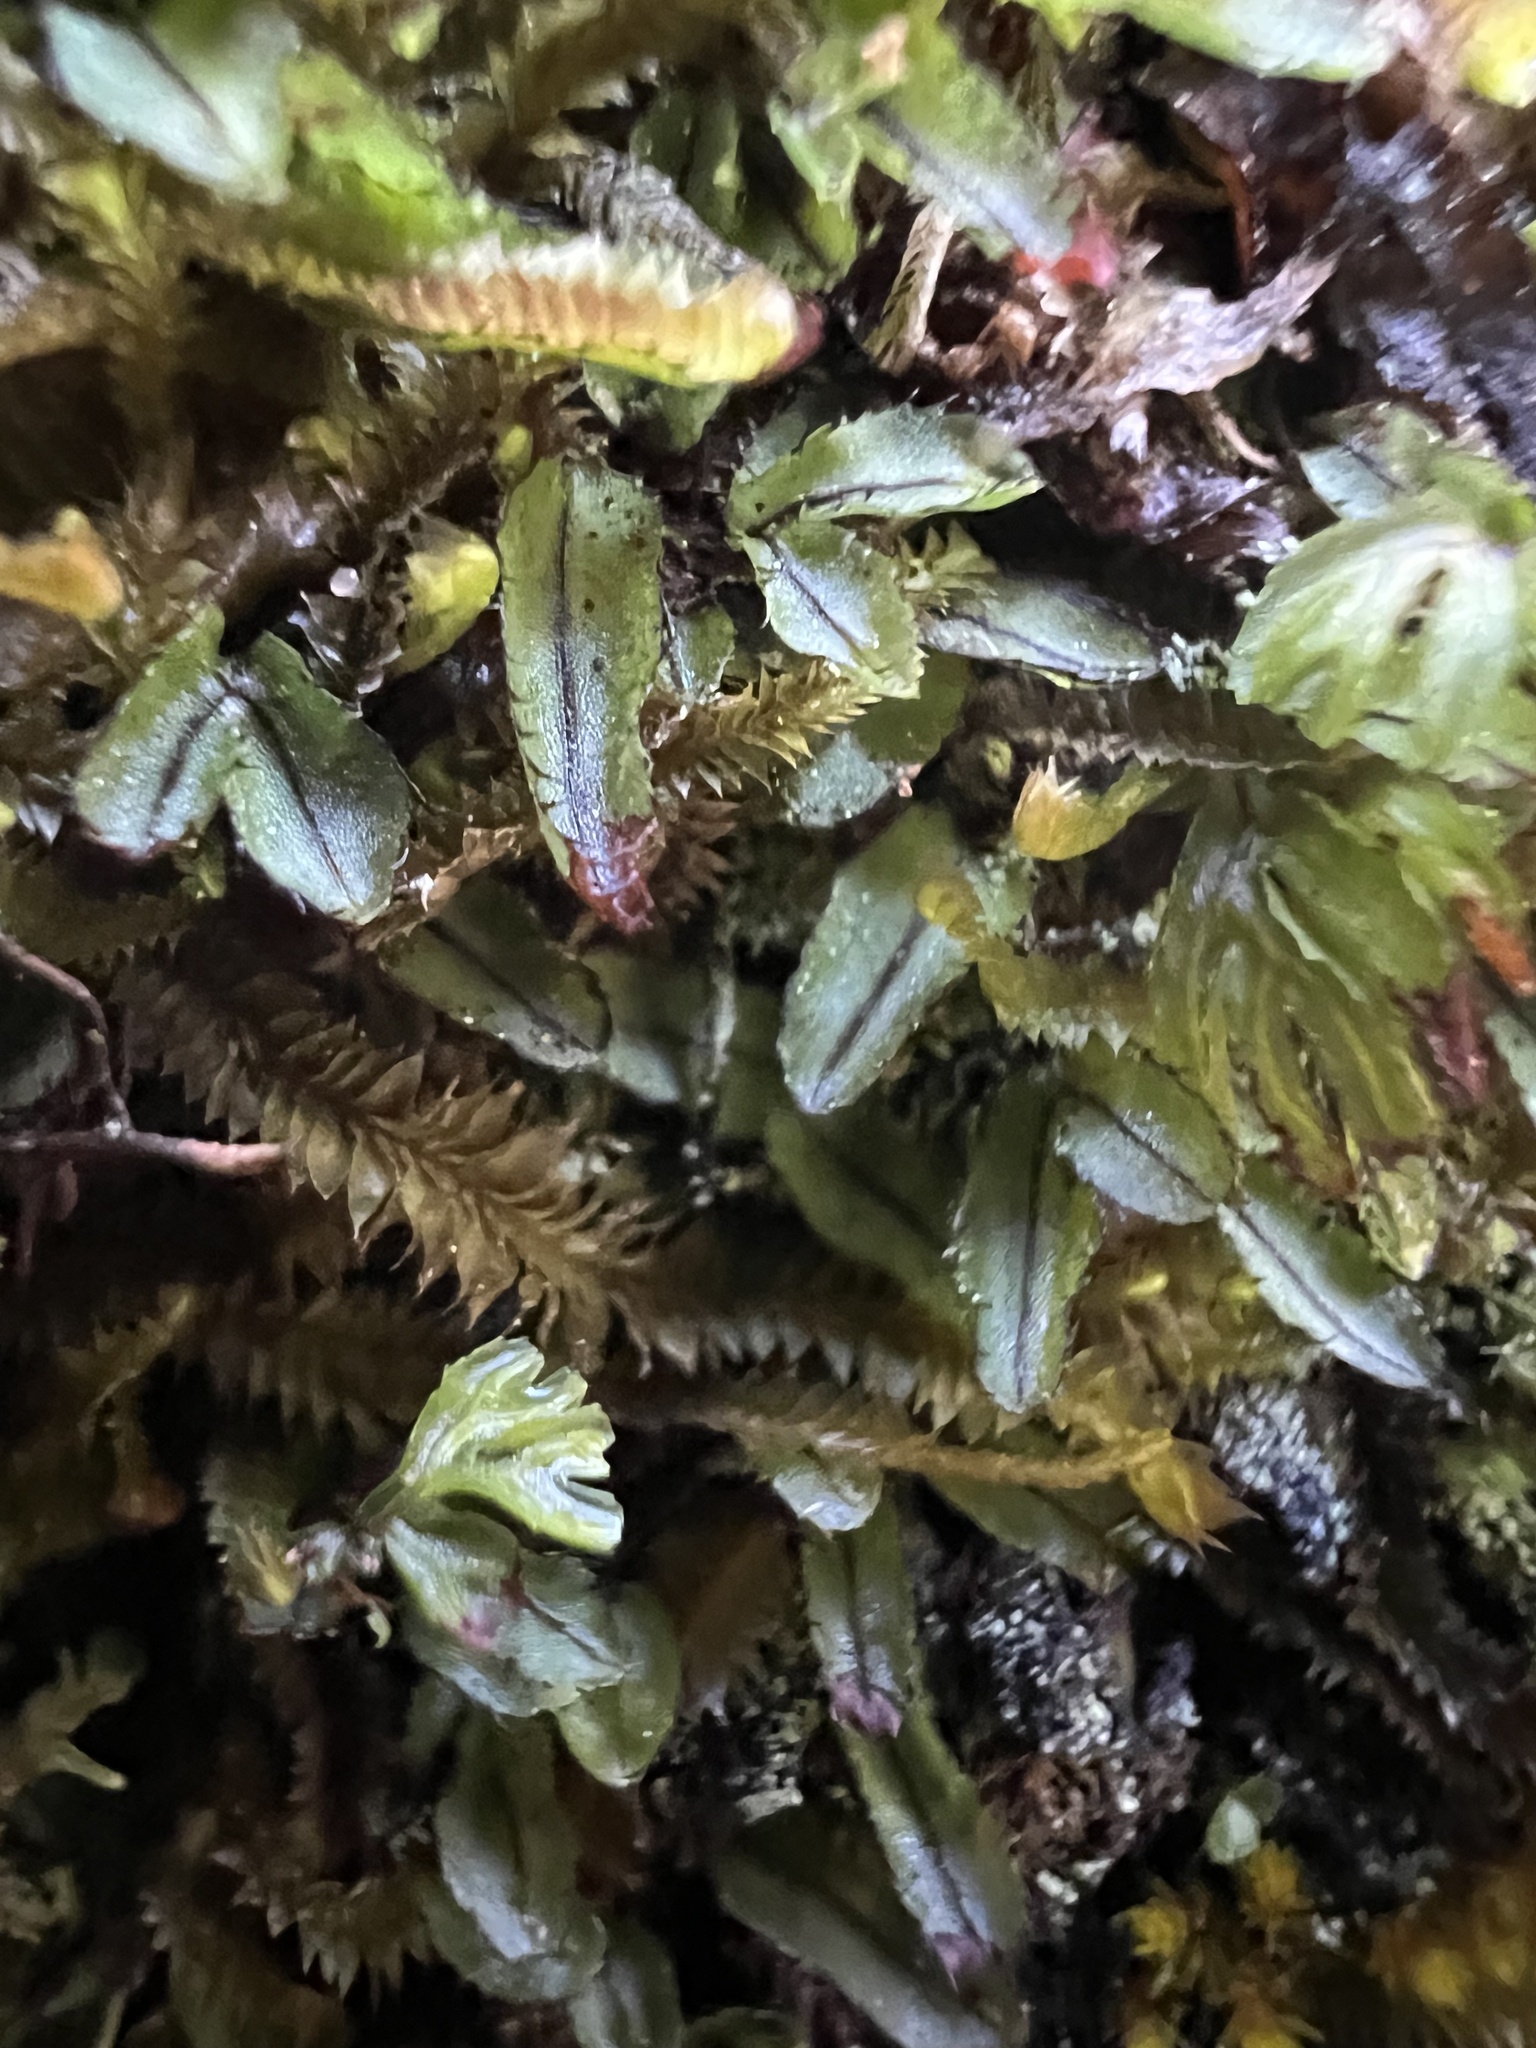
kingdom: Plantae
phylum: Tracheophyta
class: Polypodiopsida
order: Hymenophyllales
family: Hymenophyllaceae
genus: Hymenophyllum
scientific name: Hymenophyllum armstrongii
